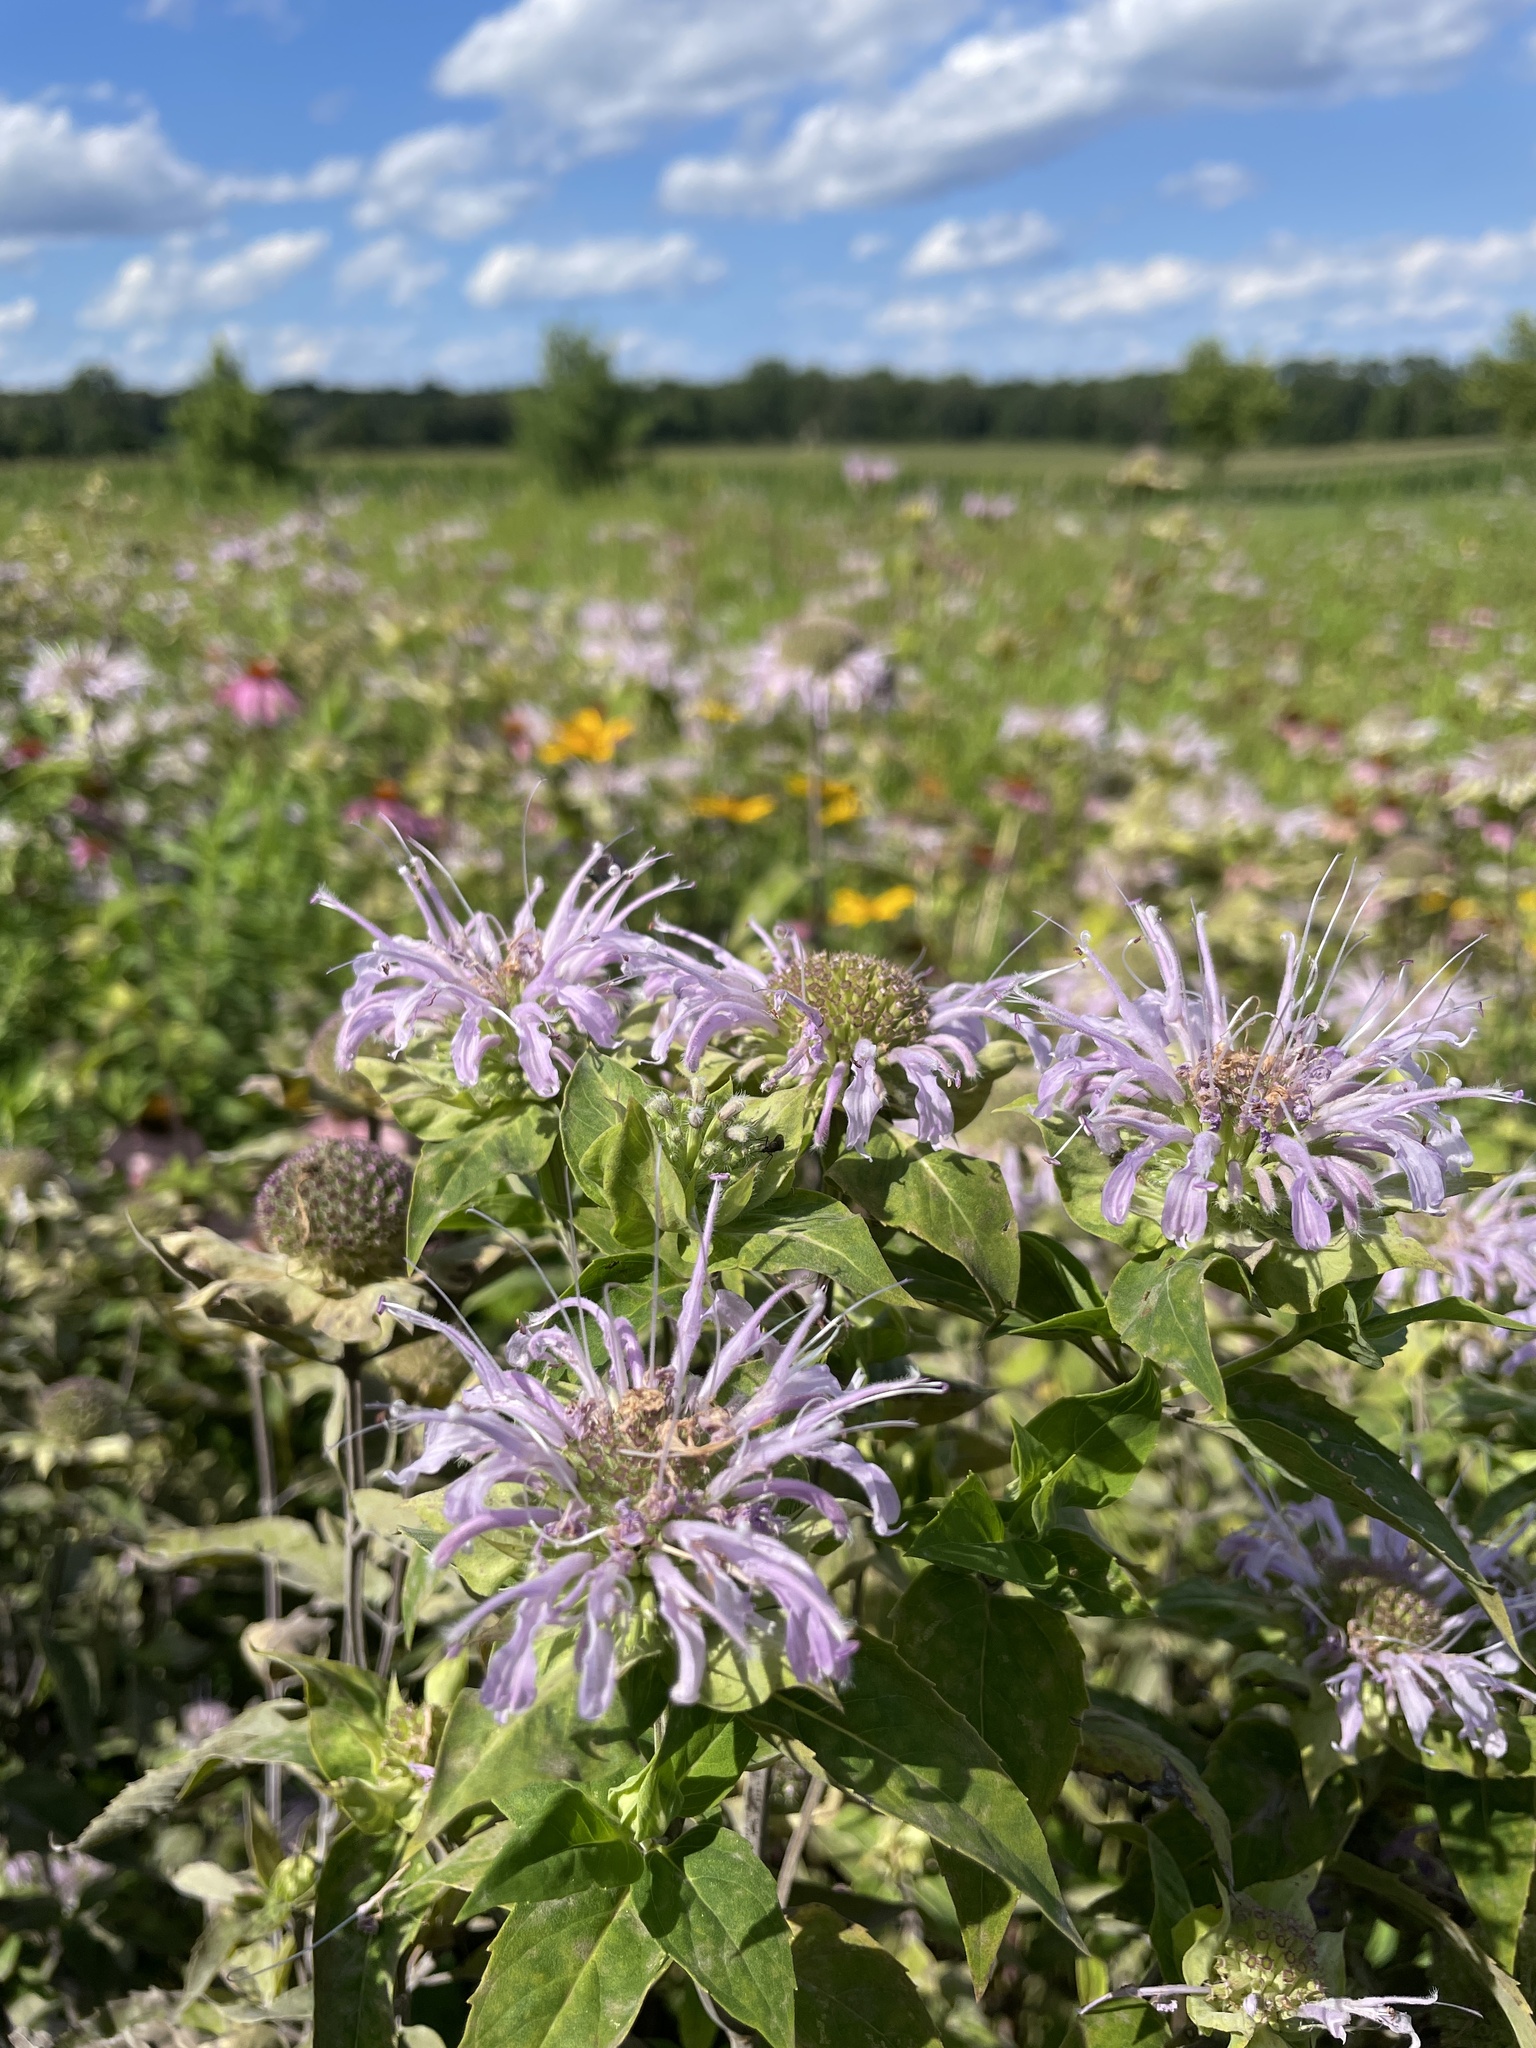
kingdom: Plantae
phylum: Tracheophyta
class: Magnoliopsida
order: Lamiales
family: Lamiaceae
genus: Monarda
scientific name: Monarda fistulosa
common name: Purple beebalm
